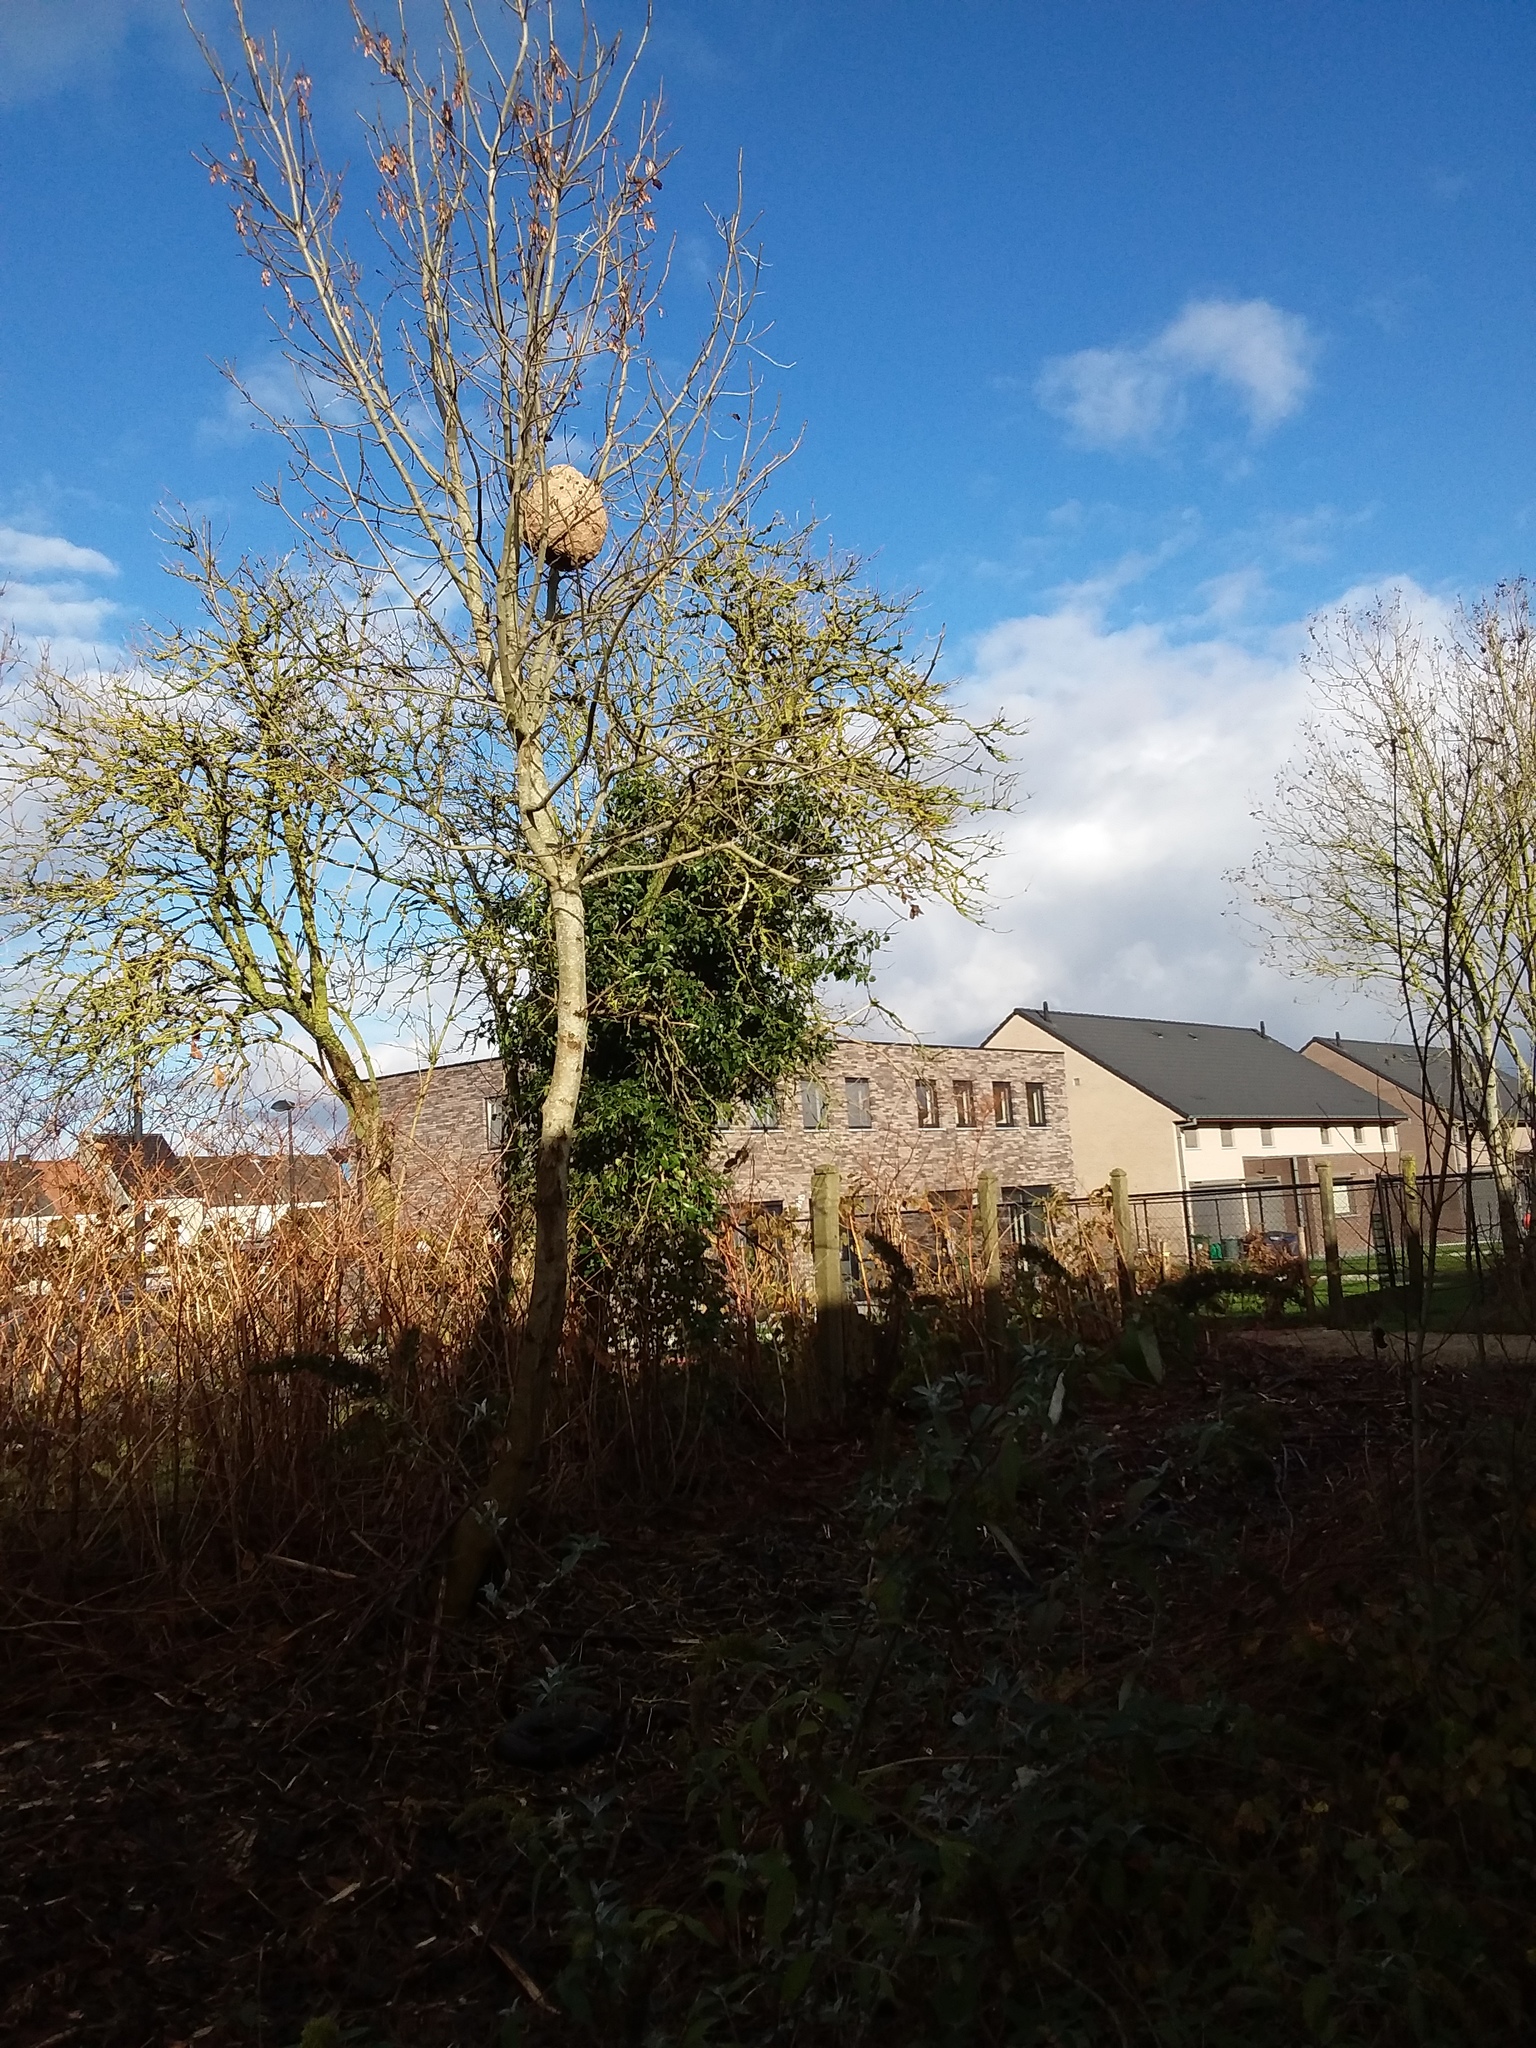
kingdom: Animalia
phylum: Arthropoda
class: Insecta
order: Hymenoptera
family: Vespidae
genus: Vespa
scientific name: Vespa velutina
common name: Asian hornet
